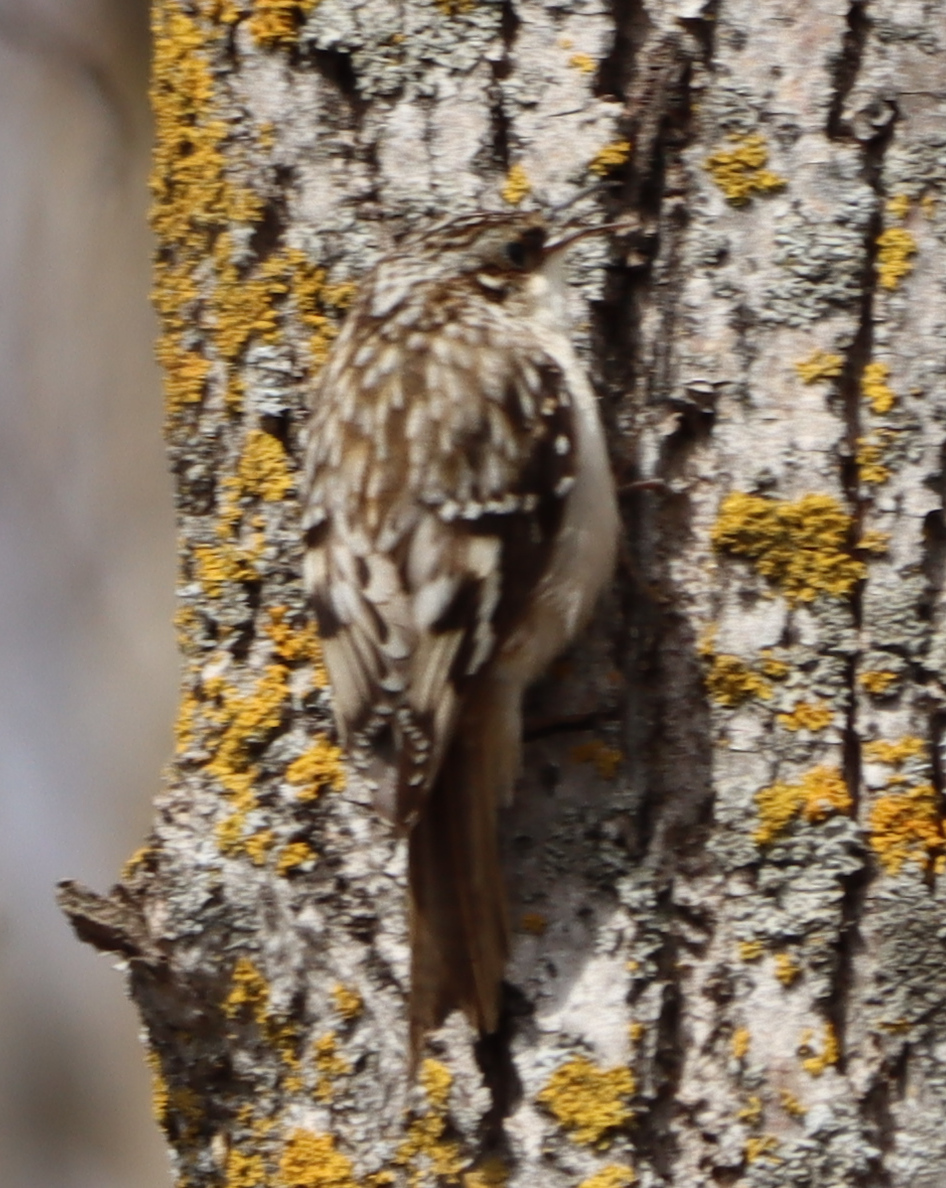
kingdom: Animalia
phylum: Chordata
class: Aves
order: Passeriformes
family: Certhiidae
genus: Certhia
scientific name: Certhia americana
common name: Brown creeper
